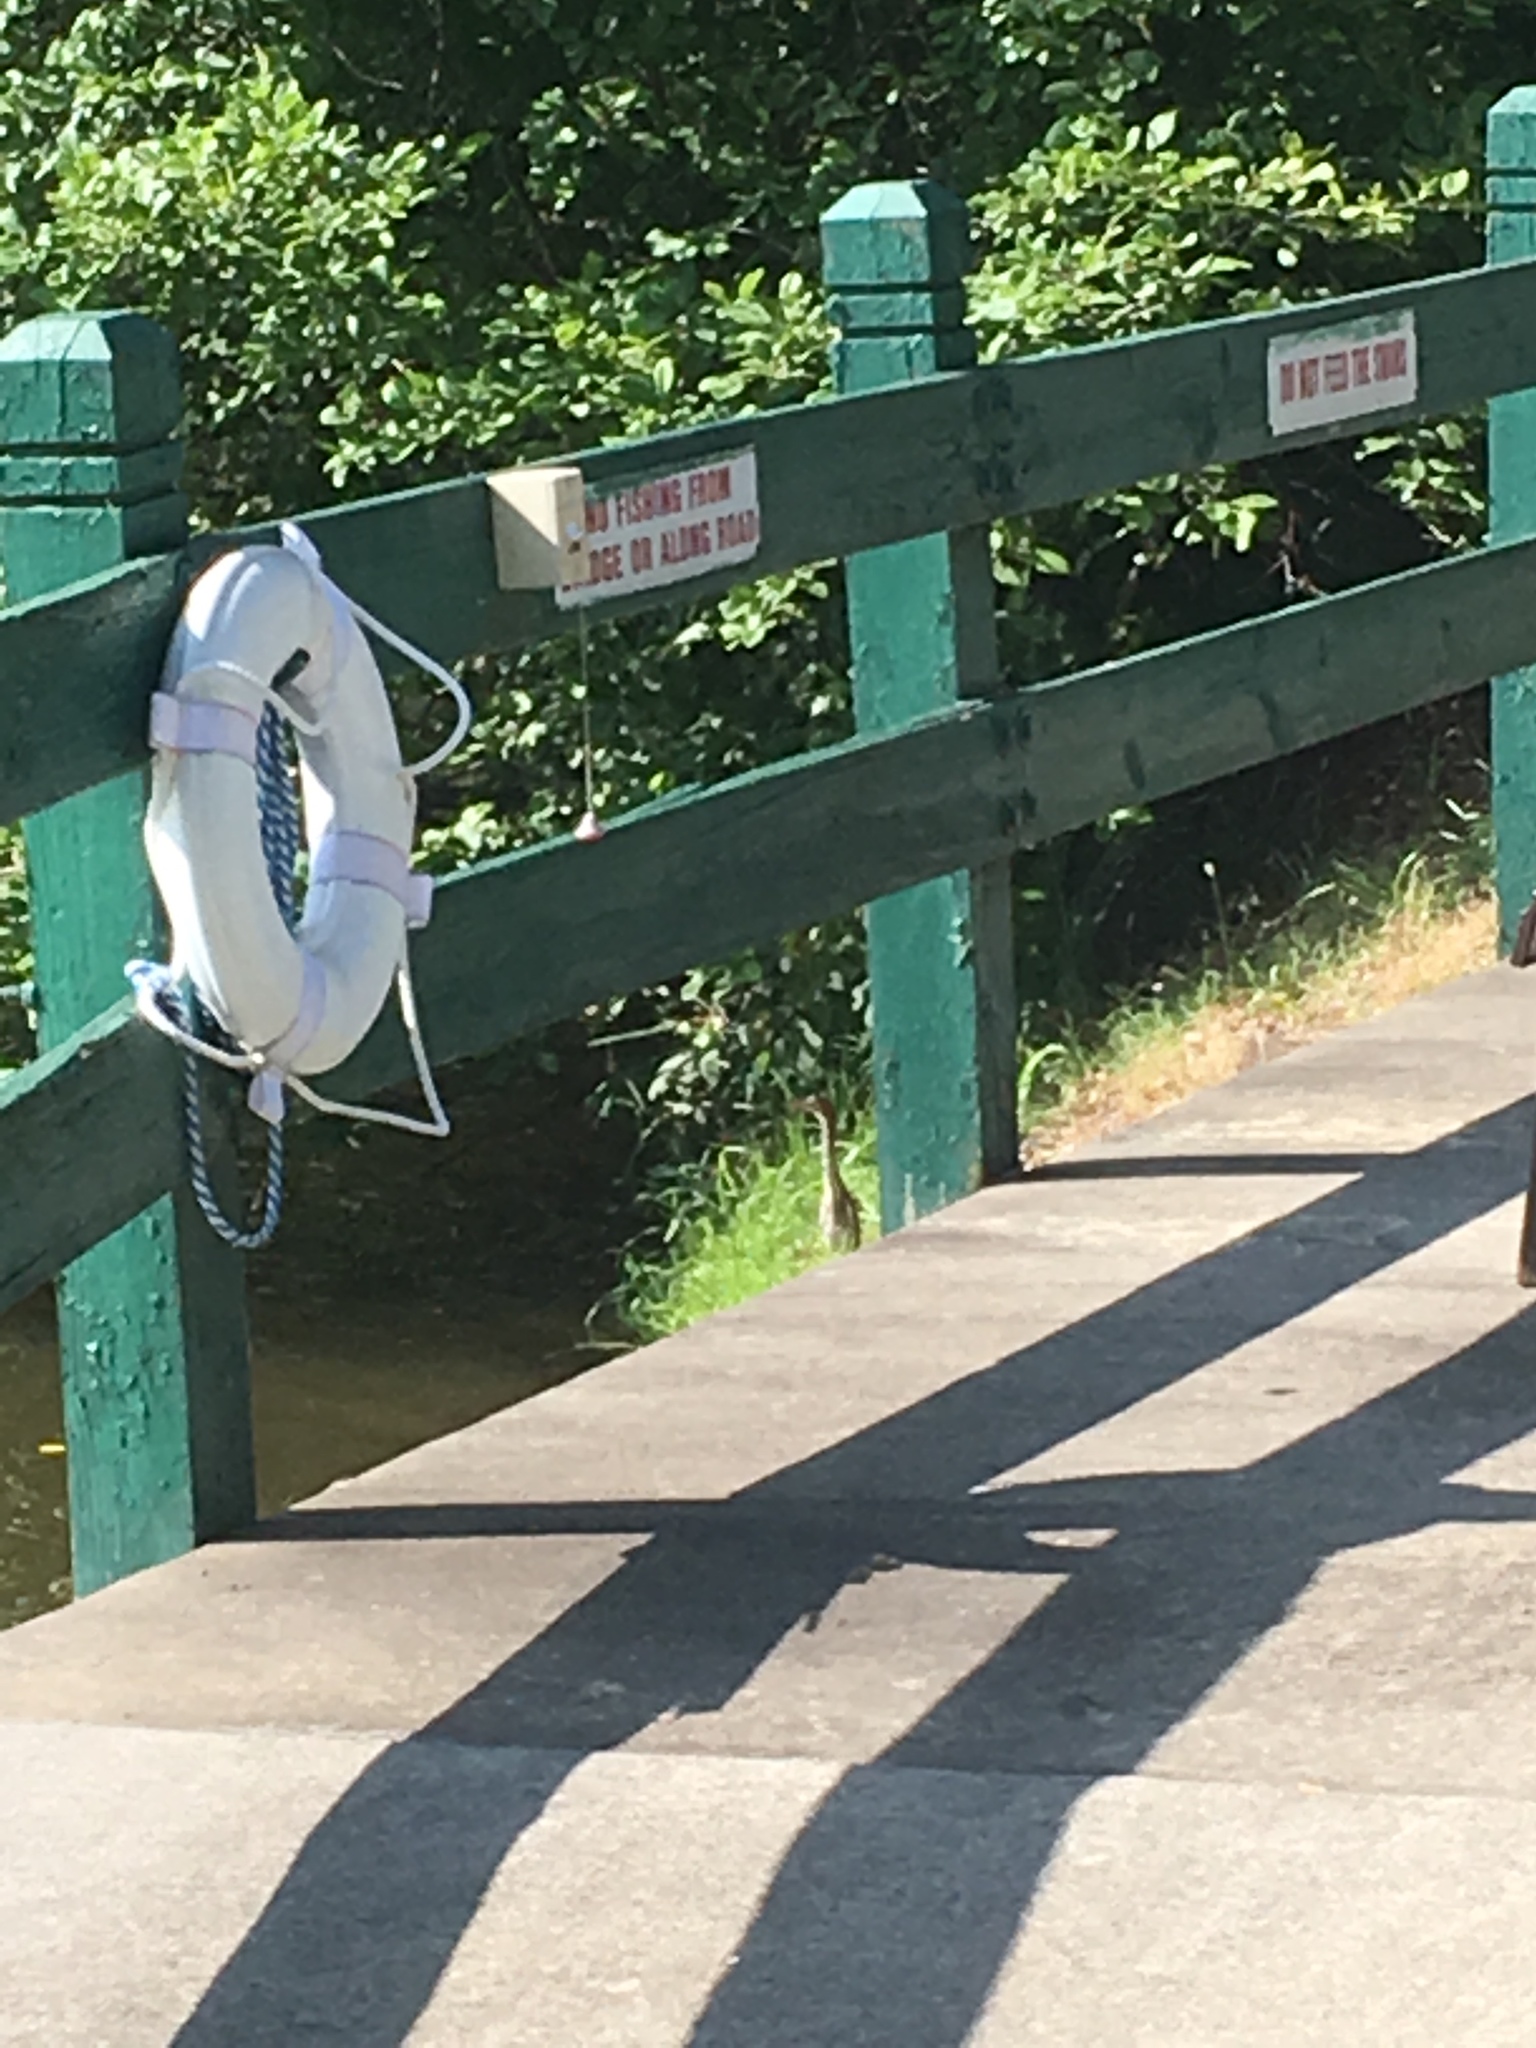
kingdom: Animalia
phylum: Chordata
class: Aves
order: Pelecaniformes
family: Ardeidae
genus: Butorides
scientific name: Butorides virescens
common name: Green heron
